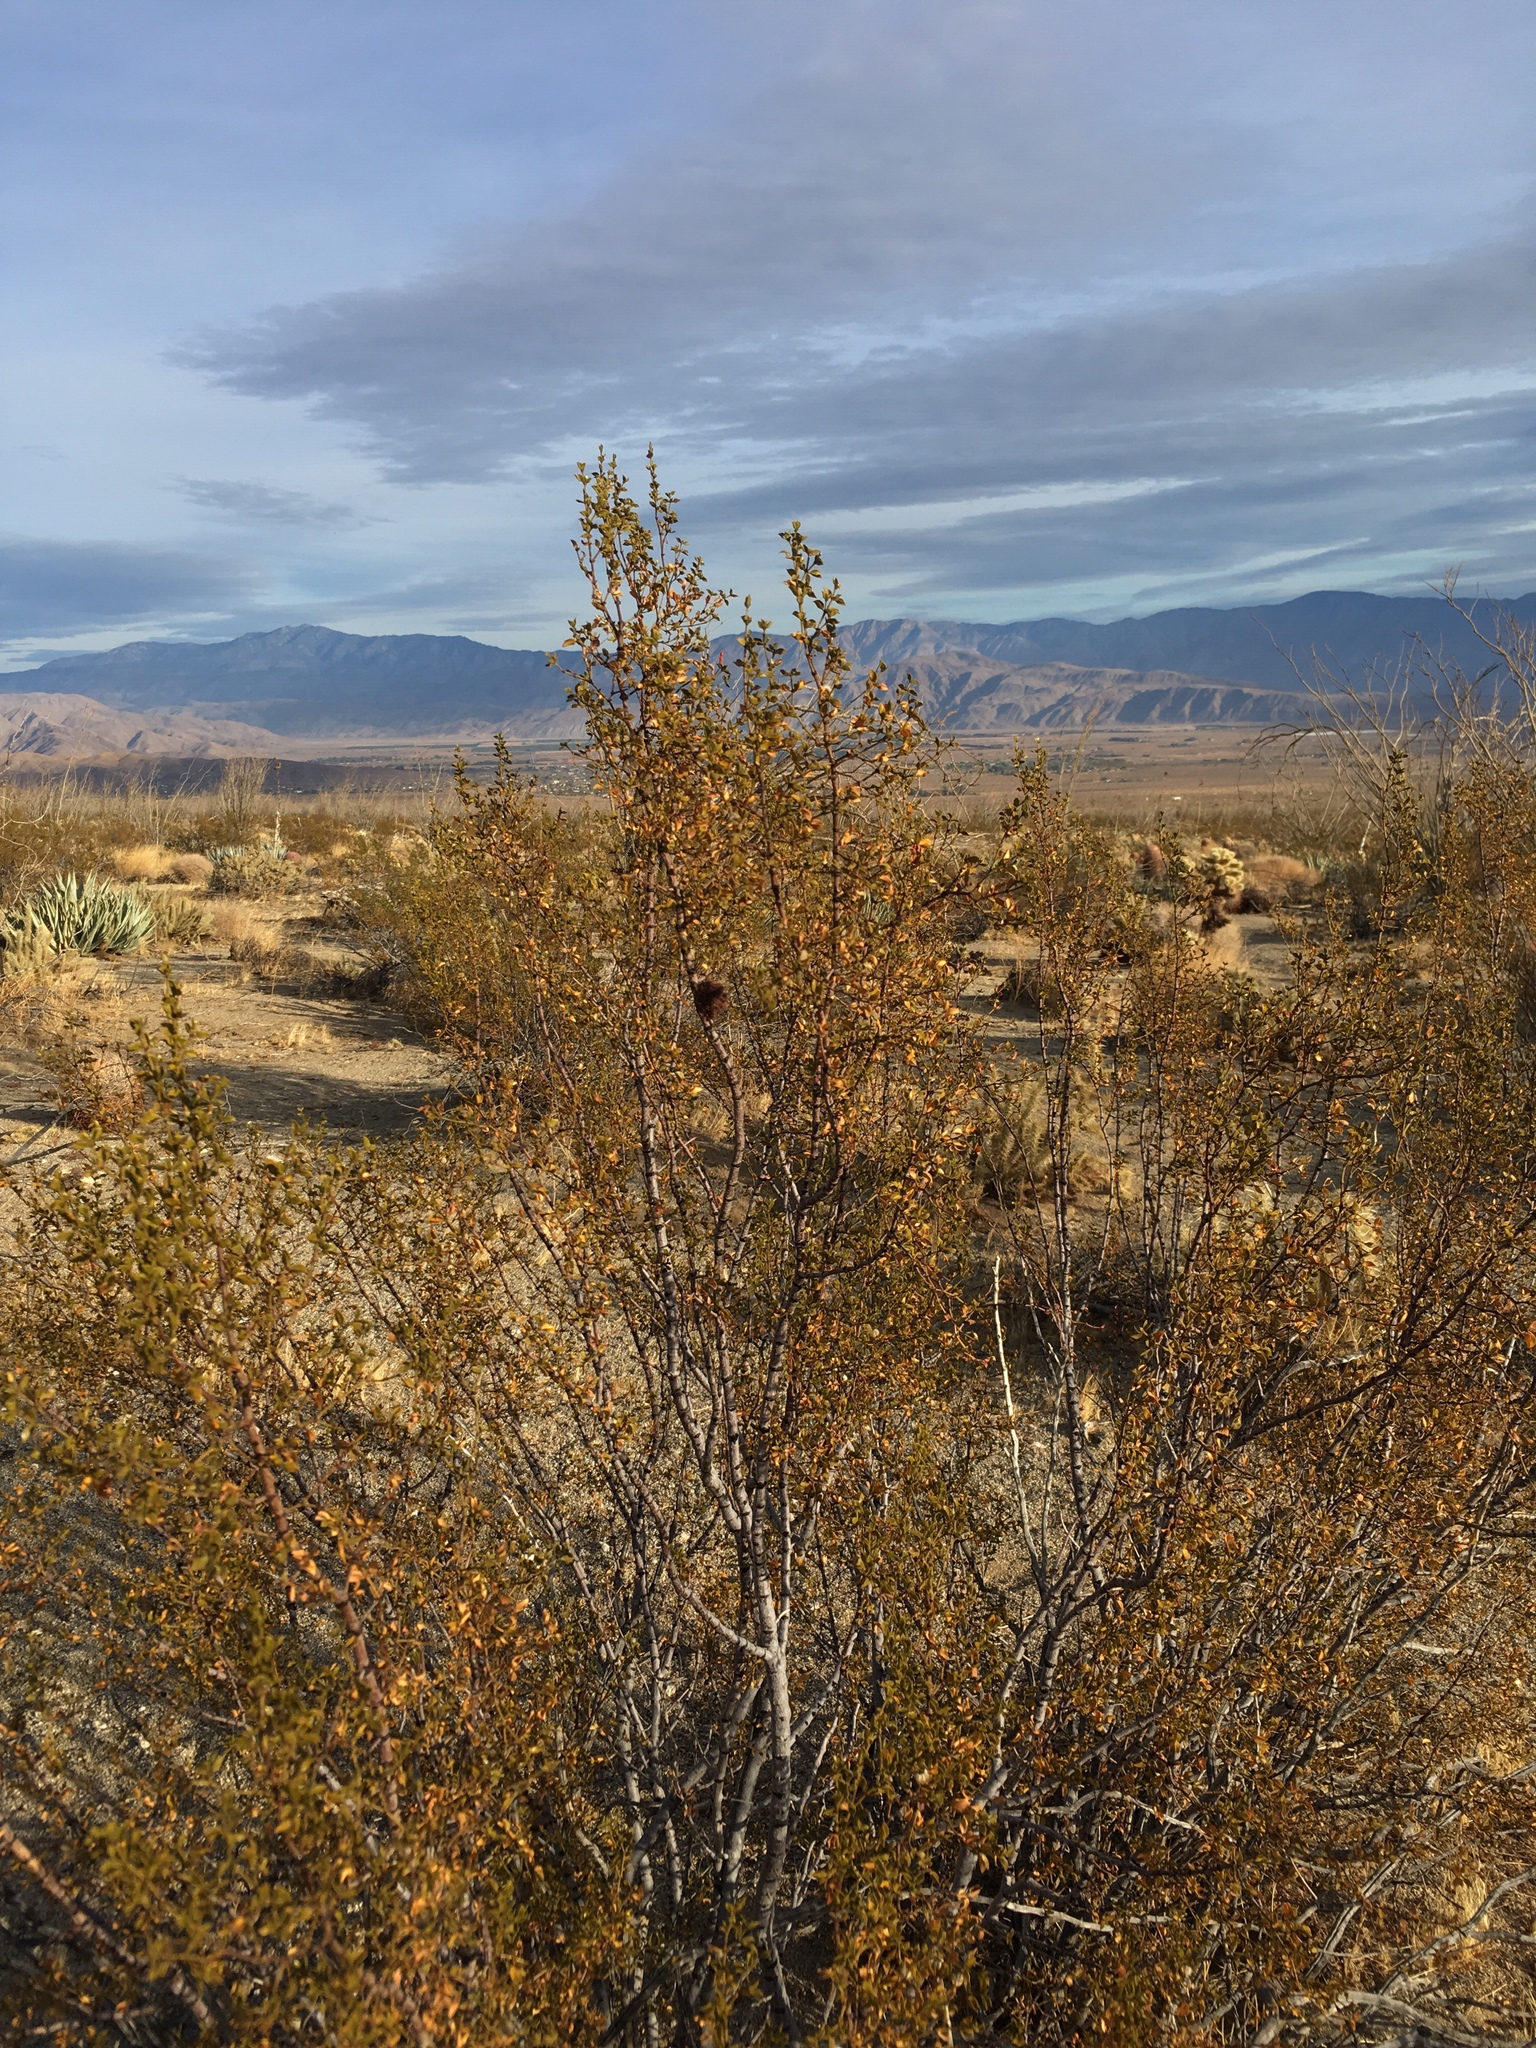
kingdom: Animalia
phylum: Arthropoda
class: Insecta
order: Diptera
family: Cecidomyiidae
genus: Asphondylia
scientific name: Asphondylia auripila
